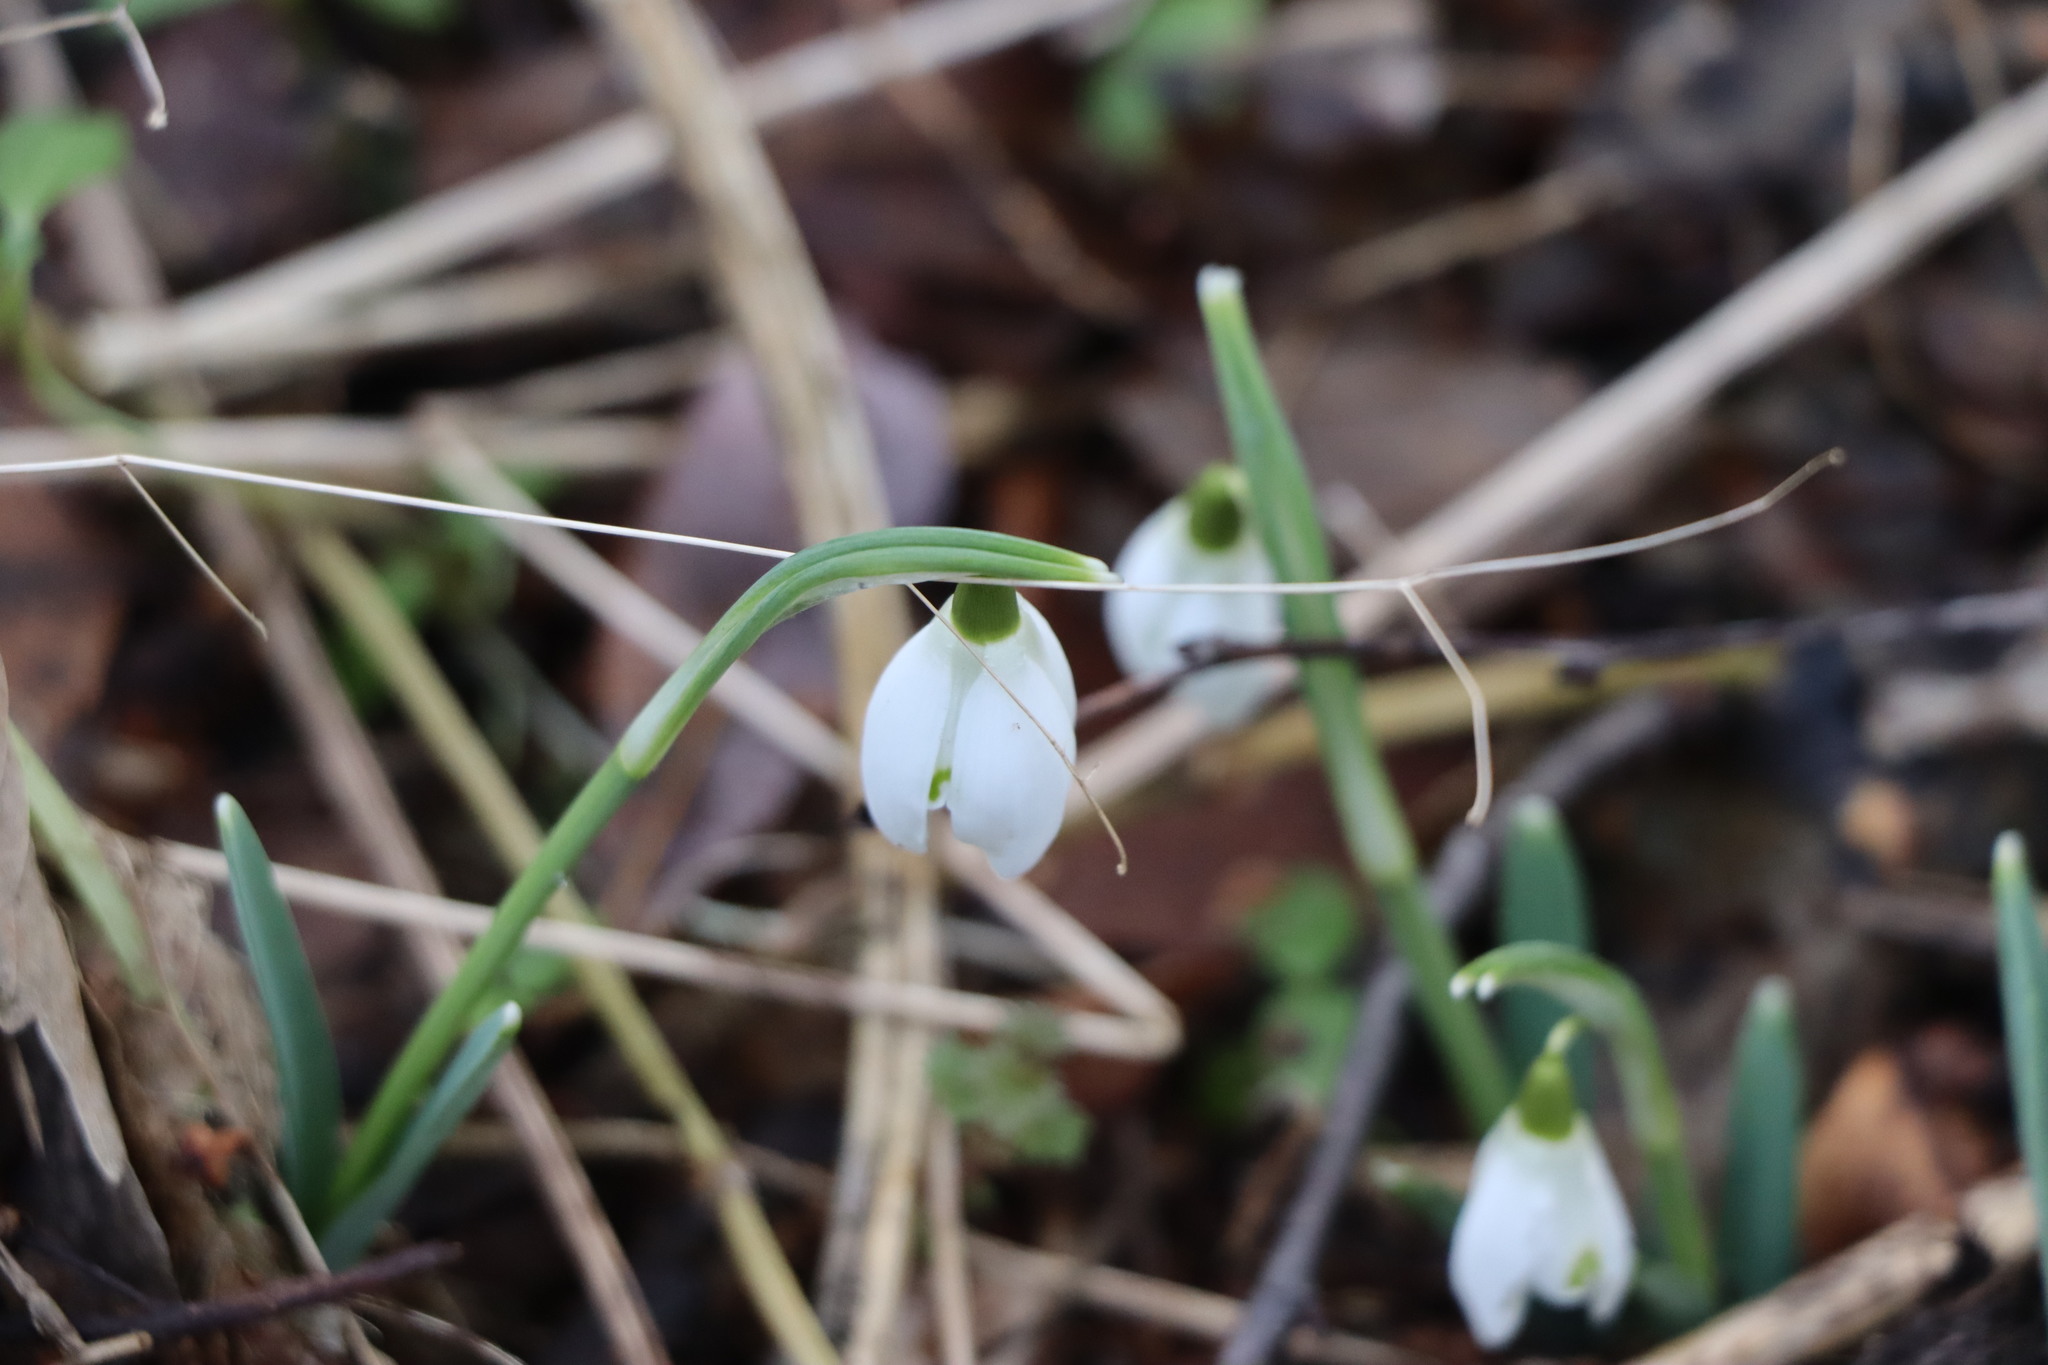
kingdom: Plantae
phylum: Tracheophyta
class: Liliopsida
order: Asparagales
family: Amaryllidaceae
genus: Galanthus
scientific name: Galanthus nivalis
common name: Snowdrop
